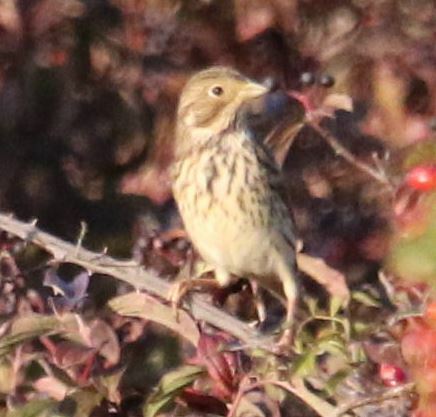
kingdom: Animalia
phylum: Chordata
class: Aves
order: Passeriformes
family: Emberizidae
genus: Emberiza
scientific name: Emberiza calandra
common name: Corn bunting
